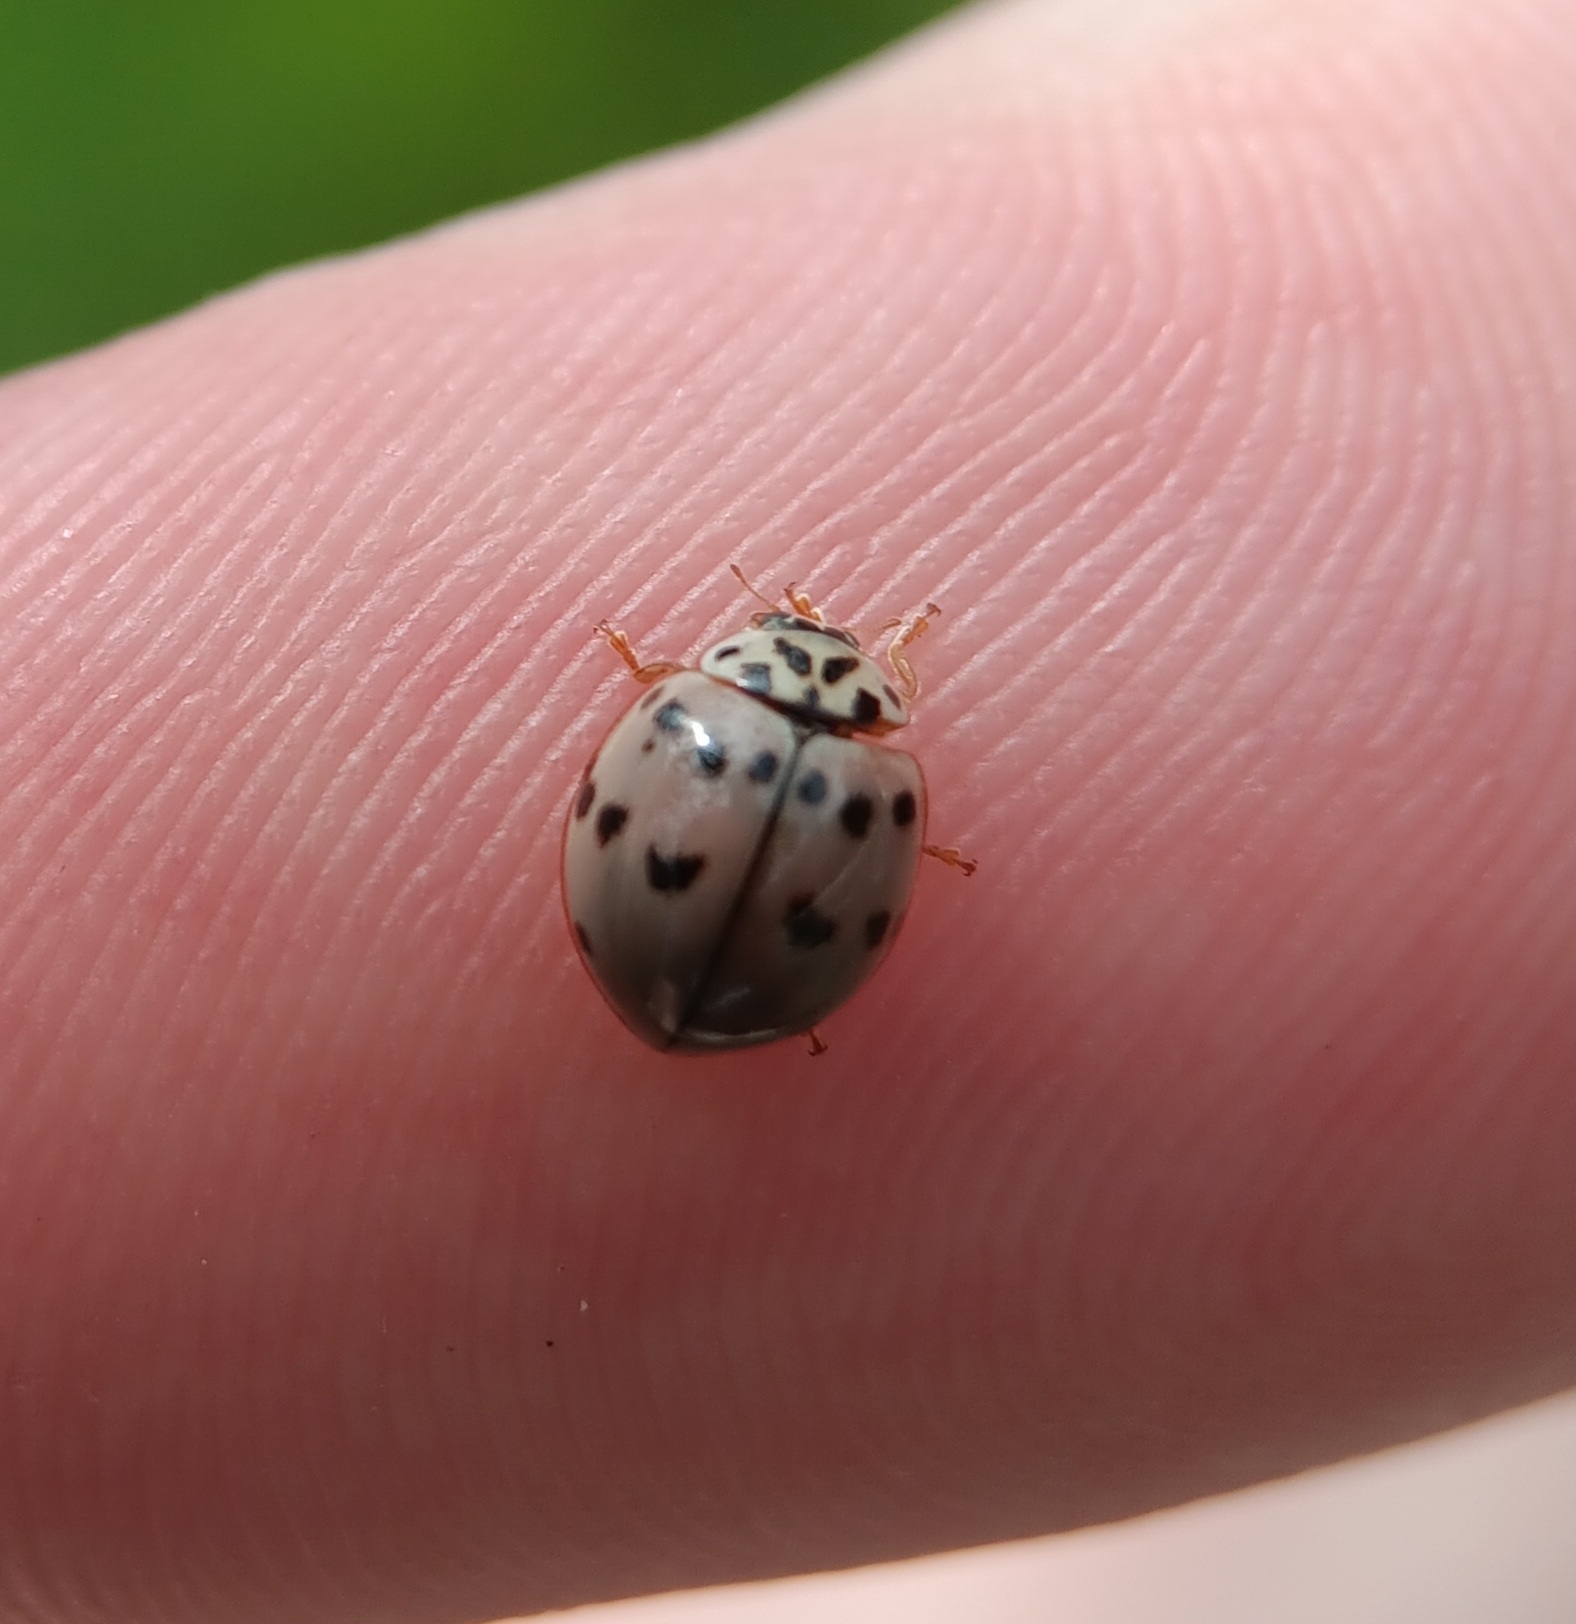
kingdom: Animalia
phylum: Arthropoda
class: Insecta
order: Coleoptera
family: Coccinellidae
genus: Olla
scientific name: Olla v-nigrum
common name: Ashy gray lady beetle
